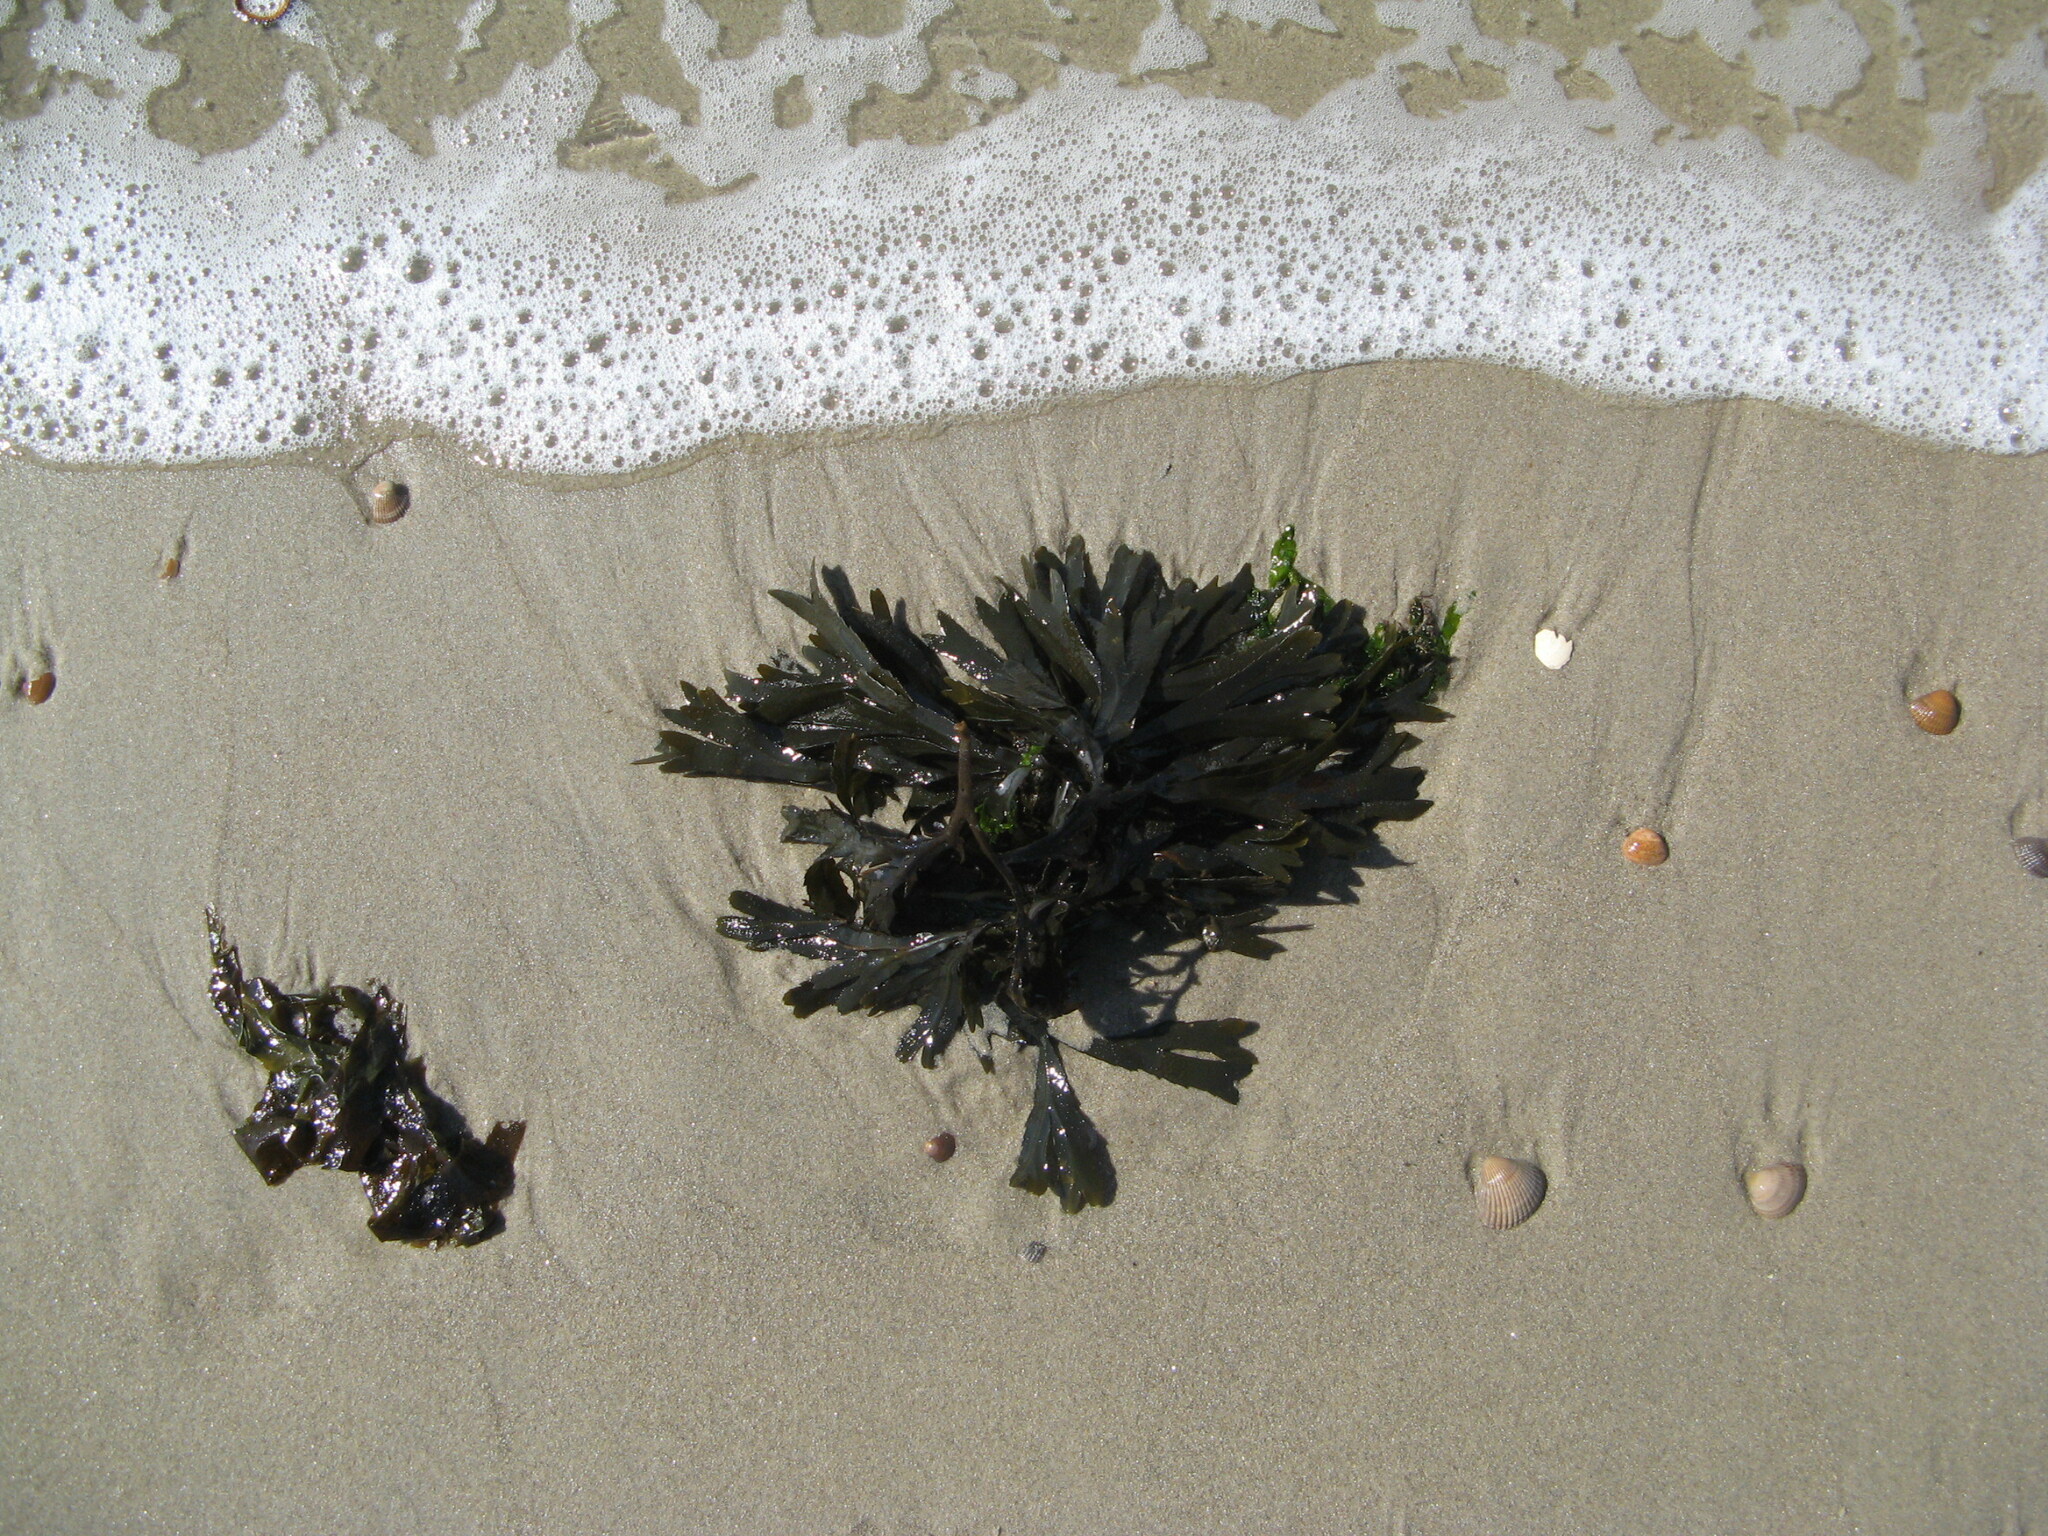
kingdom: Chromista
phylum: Ochrophyta
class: Phaeophyceae
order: Fucales
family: Fucaceae
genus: Fucus
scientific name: Fucus serratus
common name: Toothed wrack
